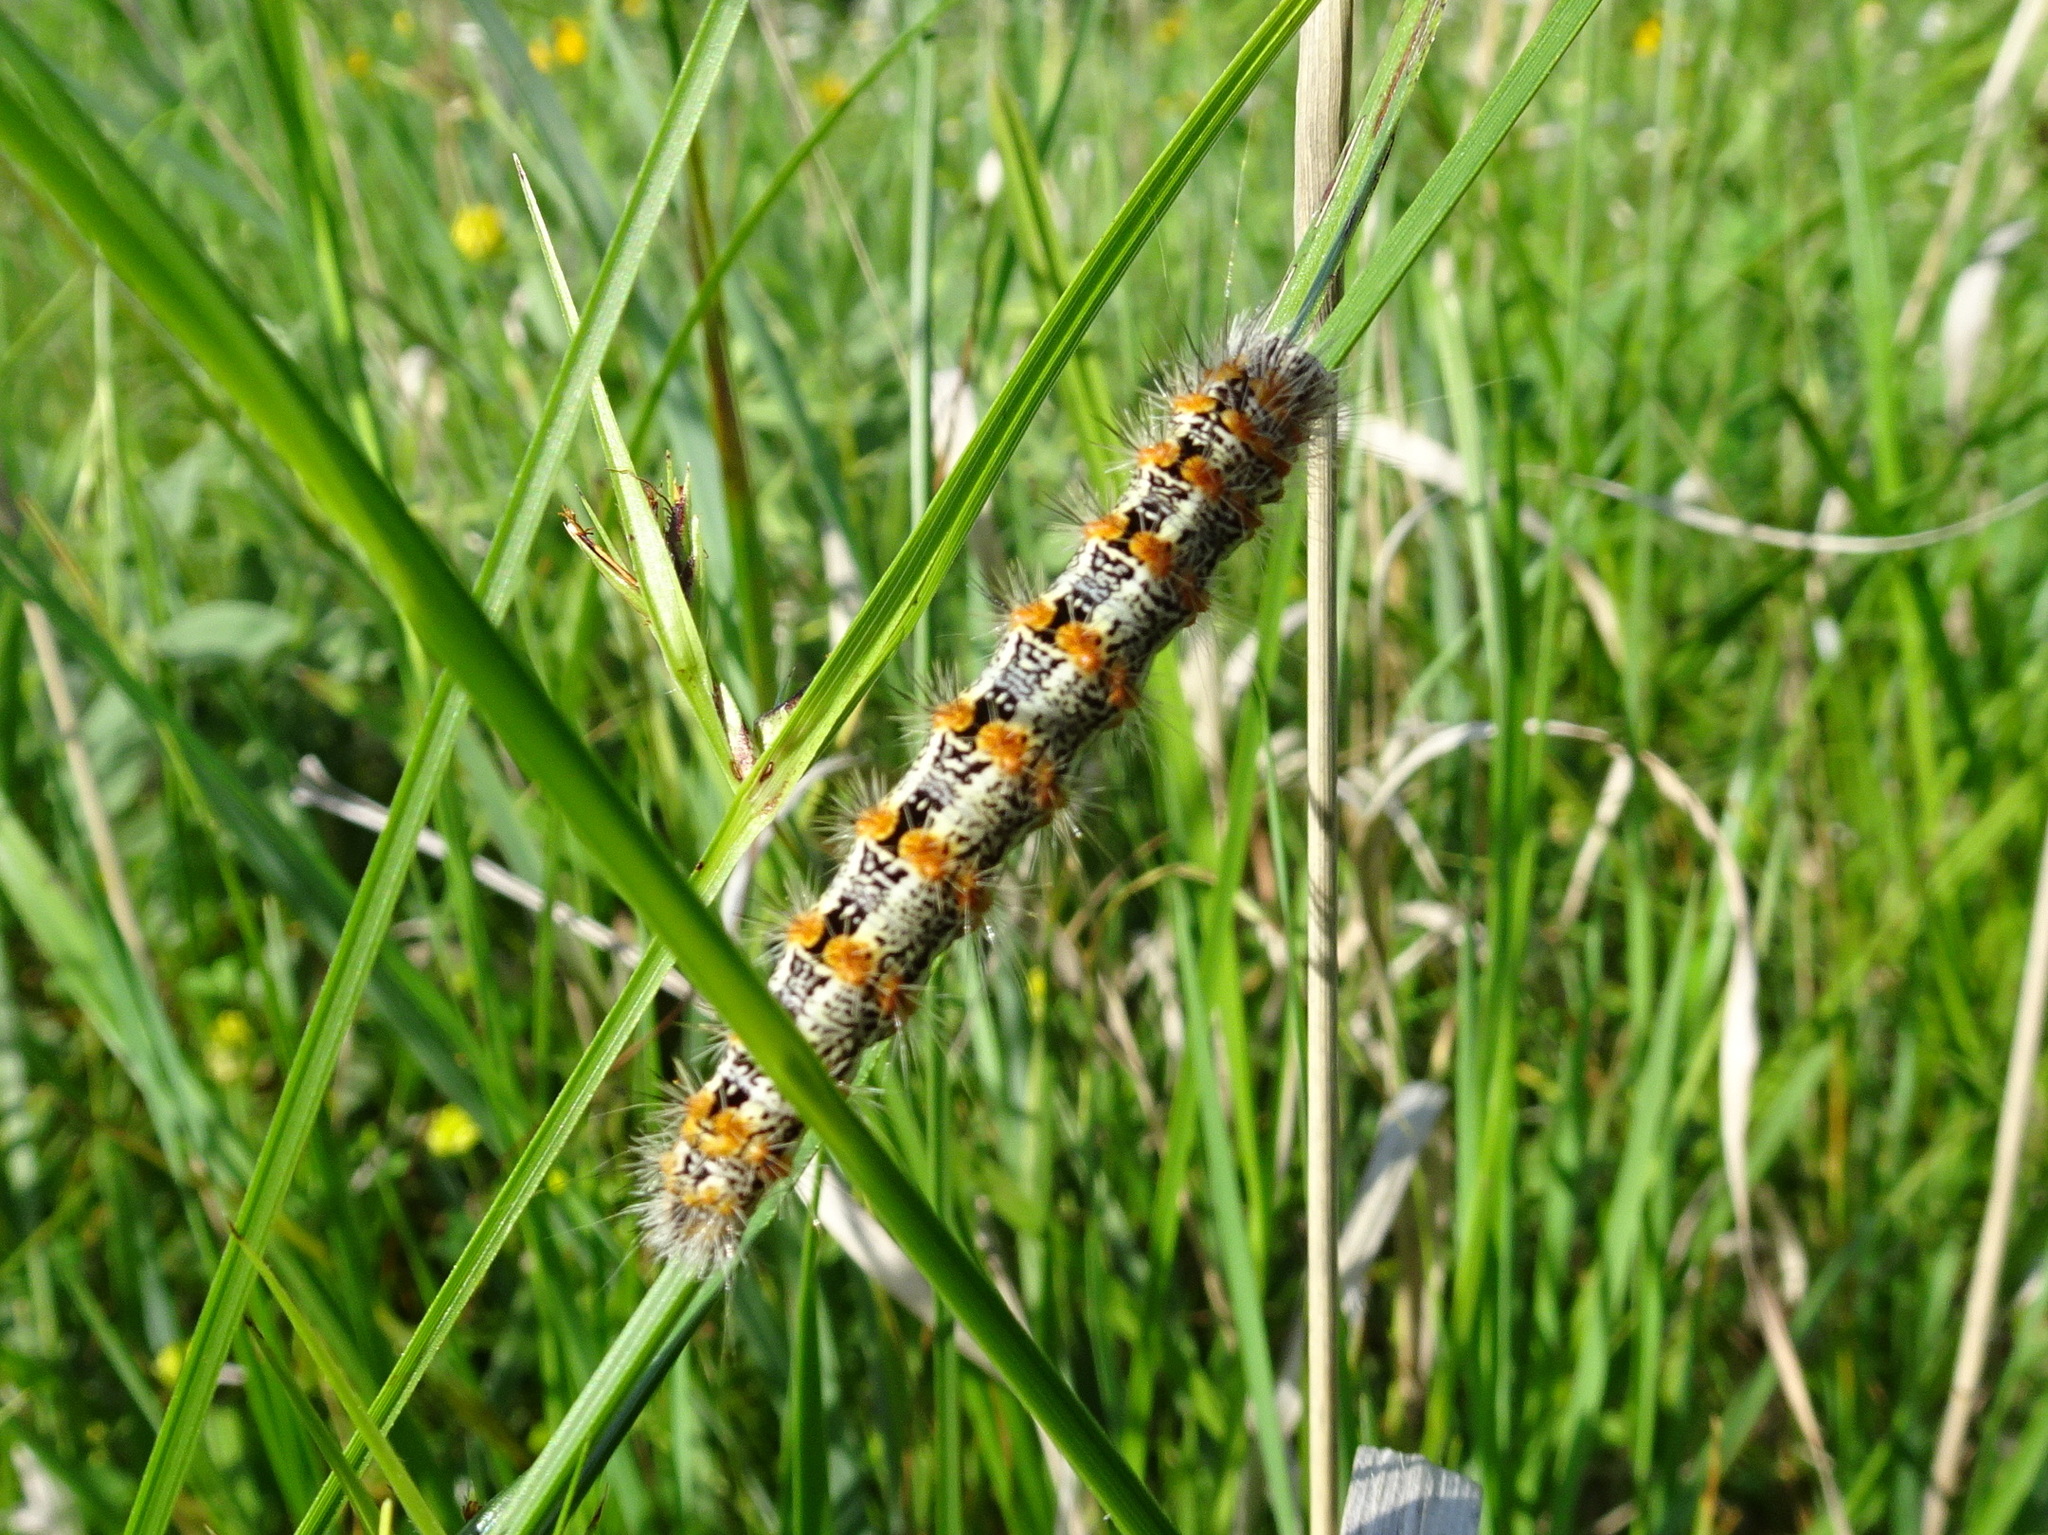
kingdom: Animalia
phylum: Arthropoda
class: Insecta
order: Lepidoptera
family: Noctuidae
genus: Acronicta
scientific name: Acronicta insularis
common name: Henry's marsh moth
